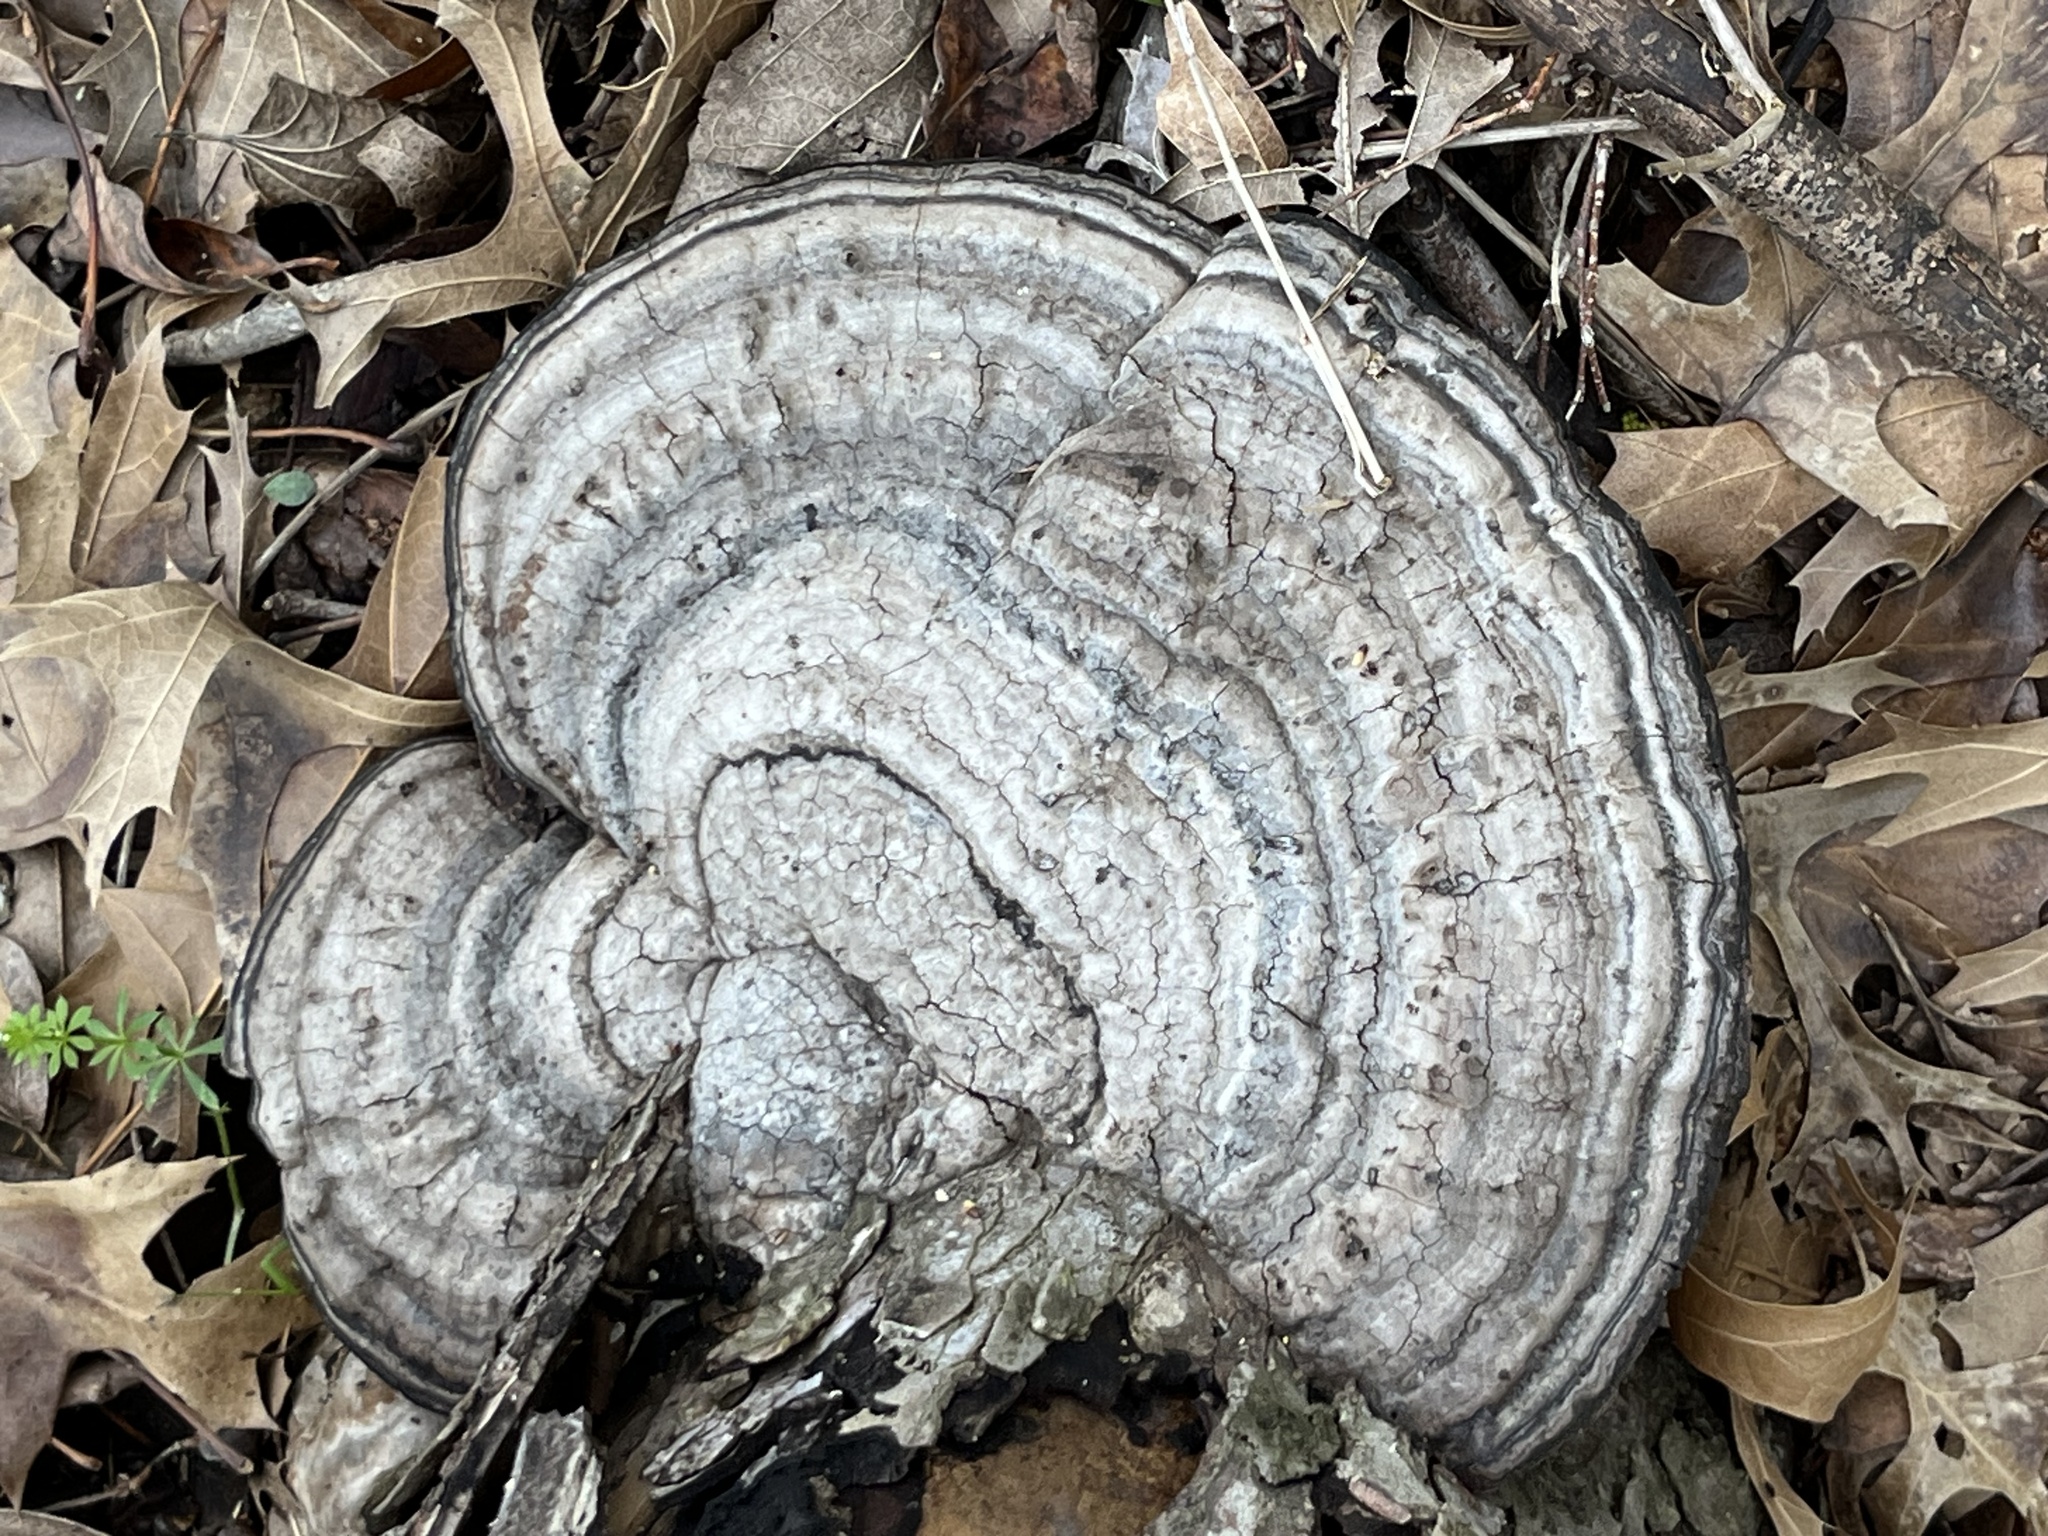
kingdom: Fungi
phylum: Basidiomycota
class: Agaricomycetes
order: Polyporales
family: Polyporaceae
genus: Fomes
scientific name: Fomes fasciatus
